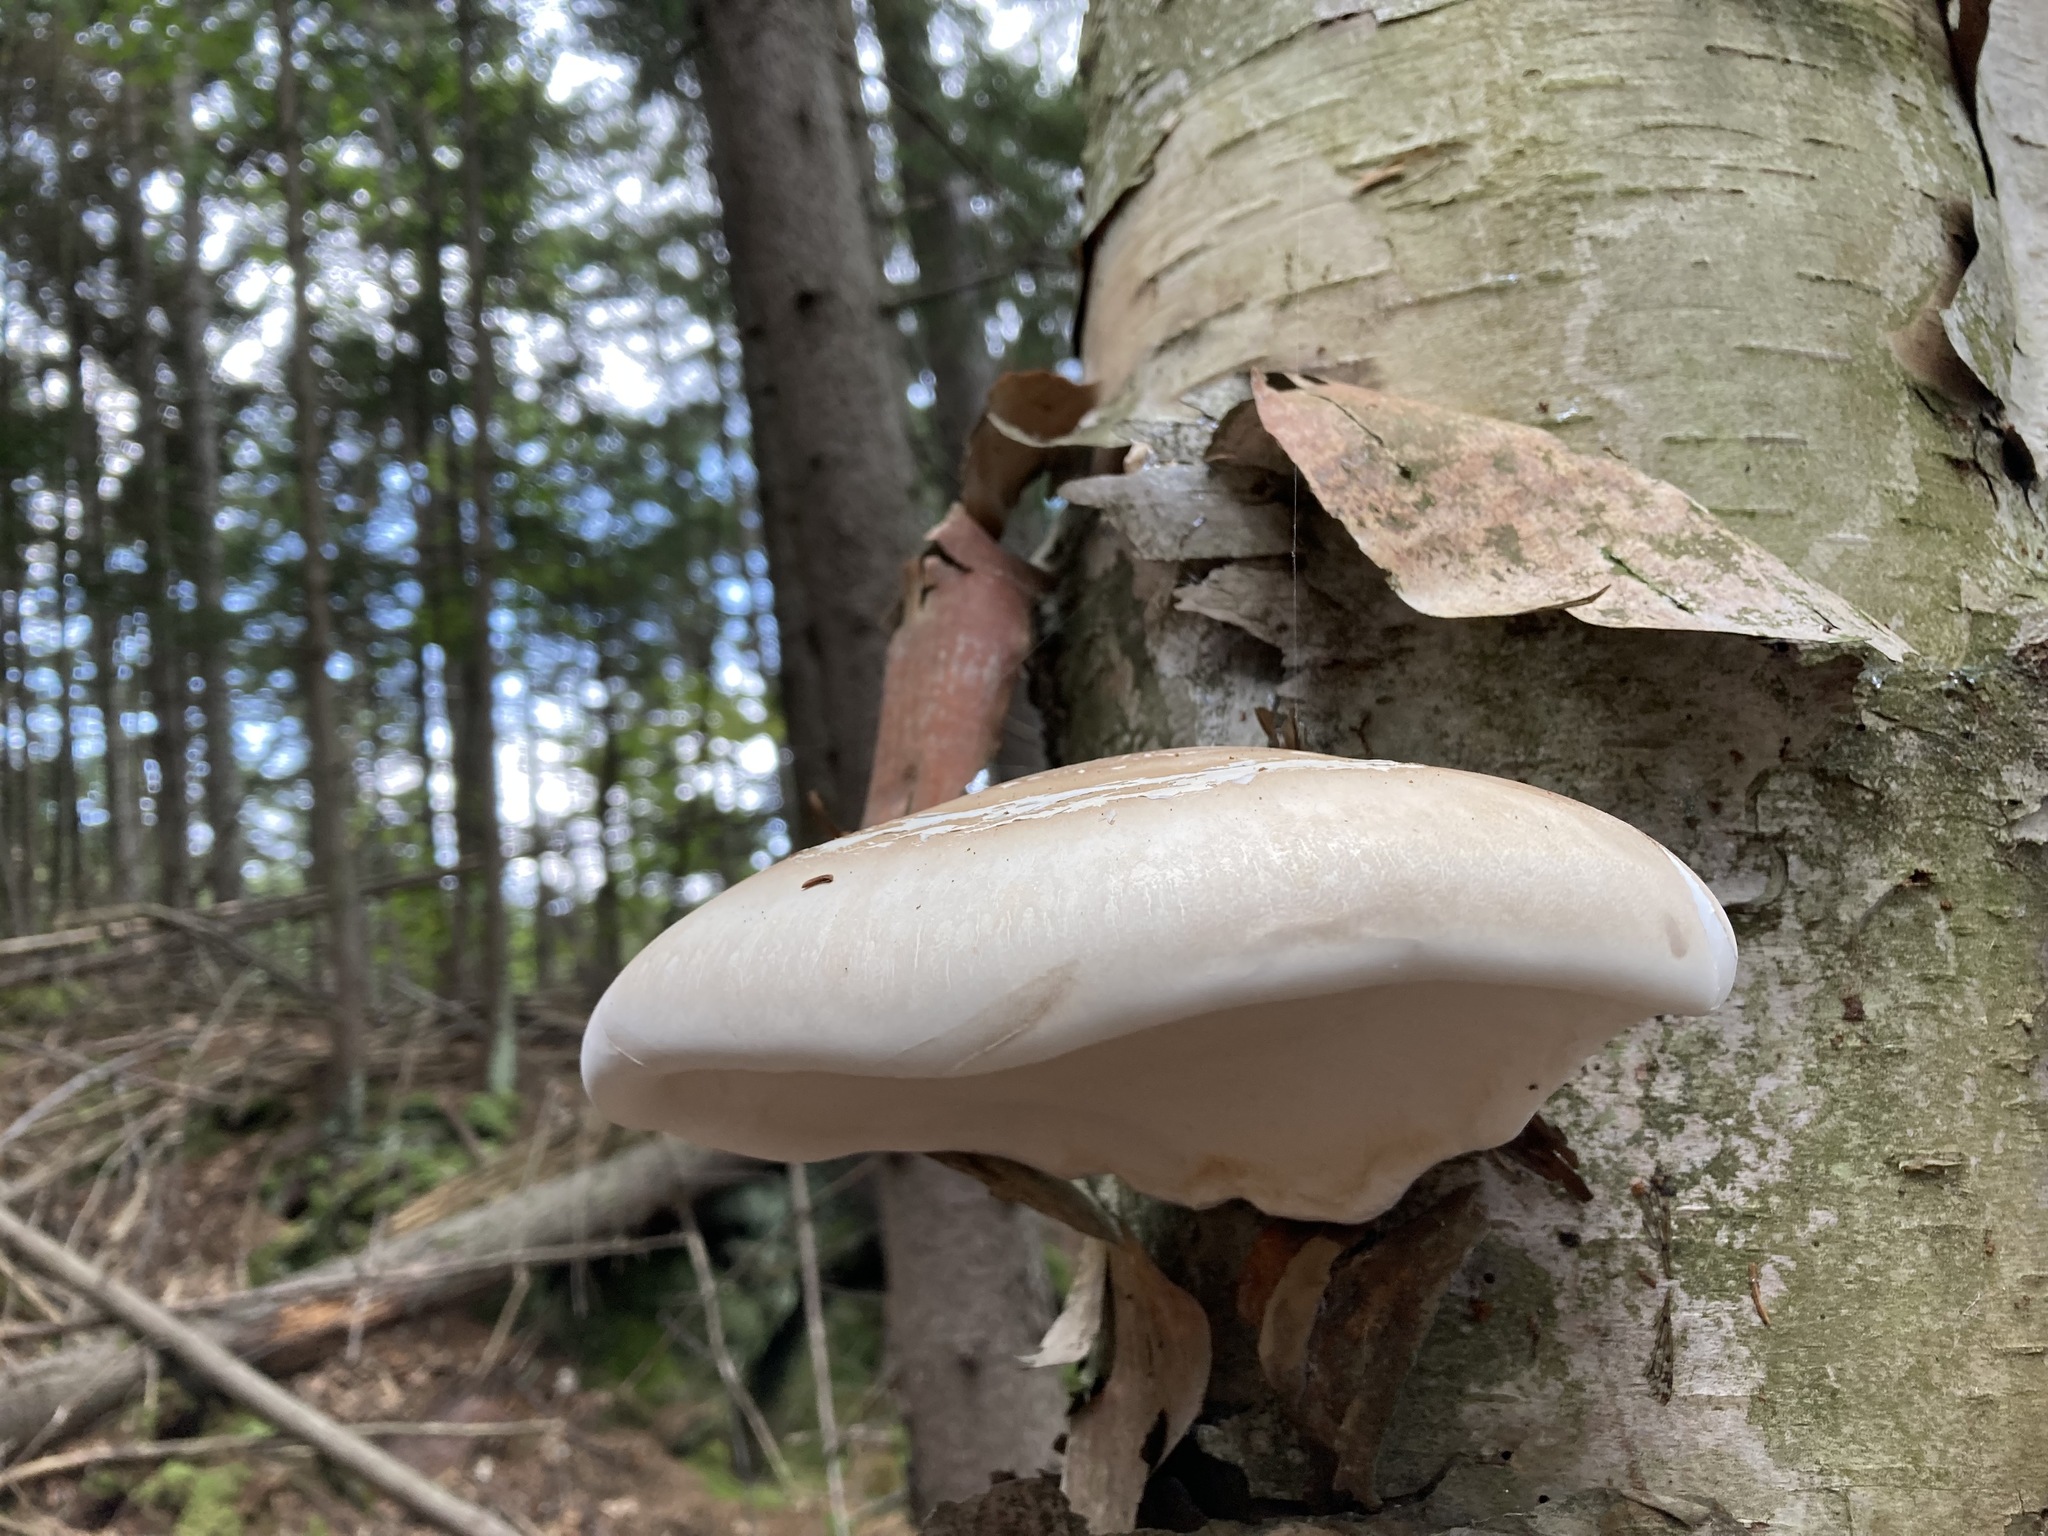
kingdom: Fungi
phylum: Basidiomycota
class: Agaricomycetes
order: Polyporales
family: Fomitopsidaceae
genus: Fomitopsis
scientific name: Fomitopsis betulina
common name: Birch polypore
